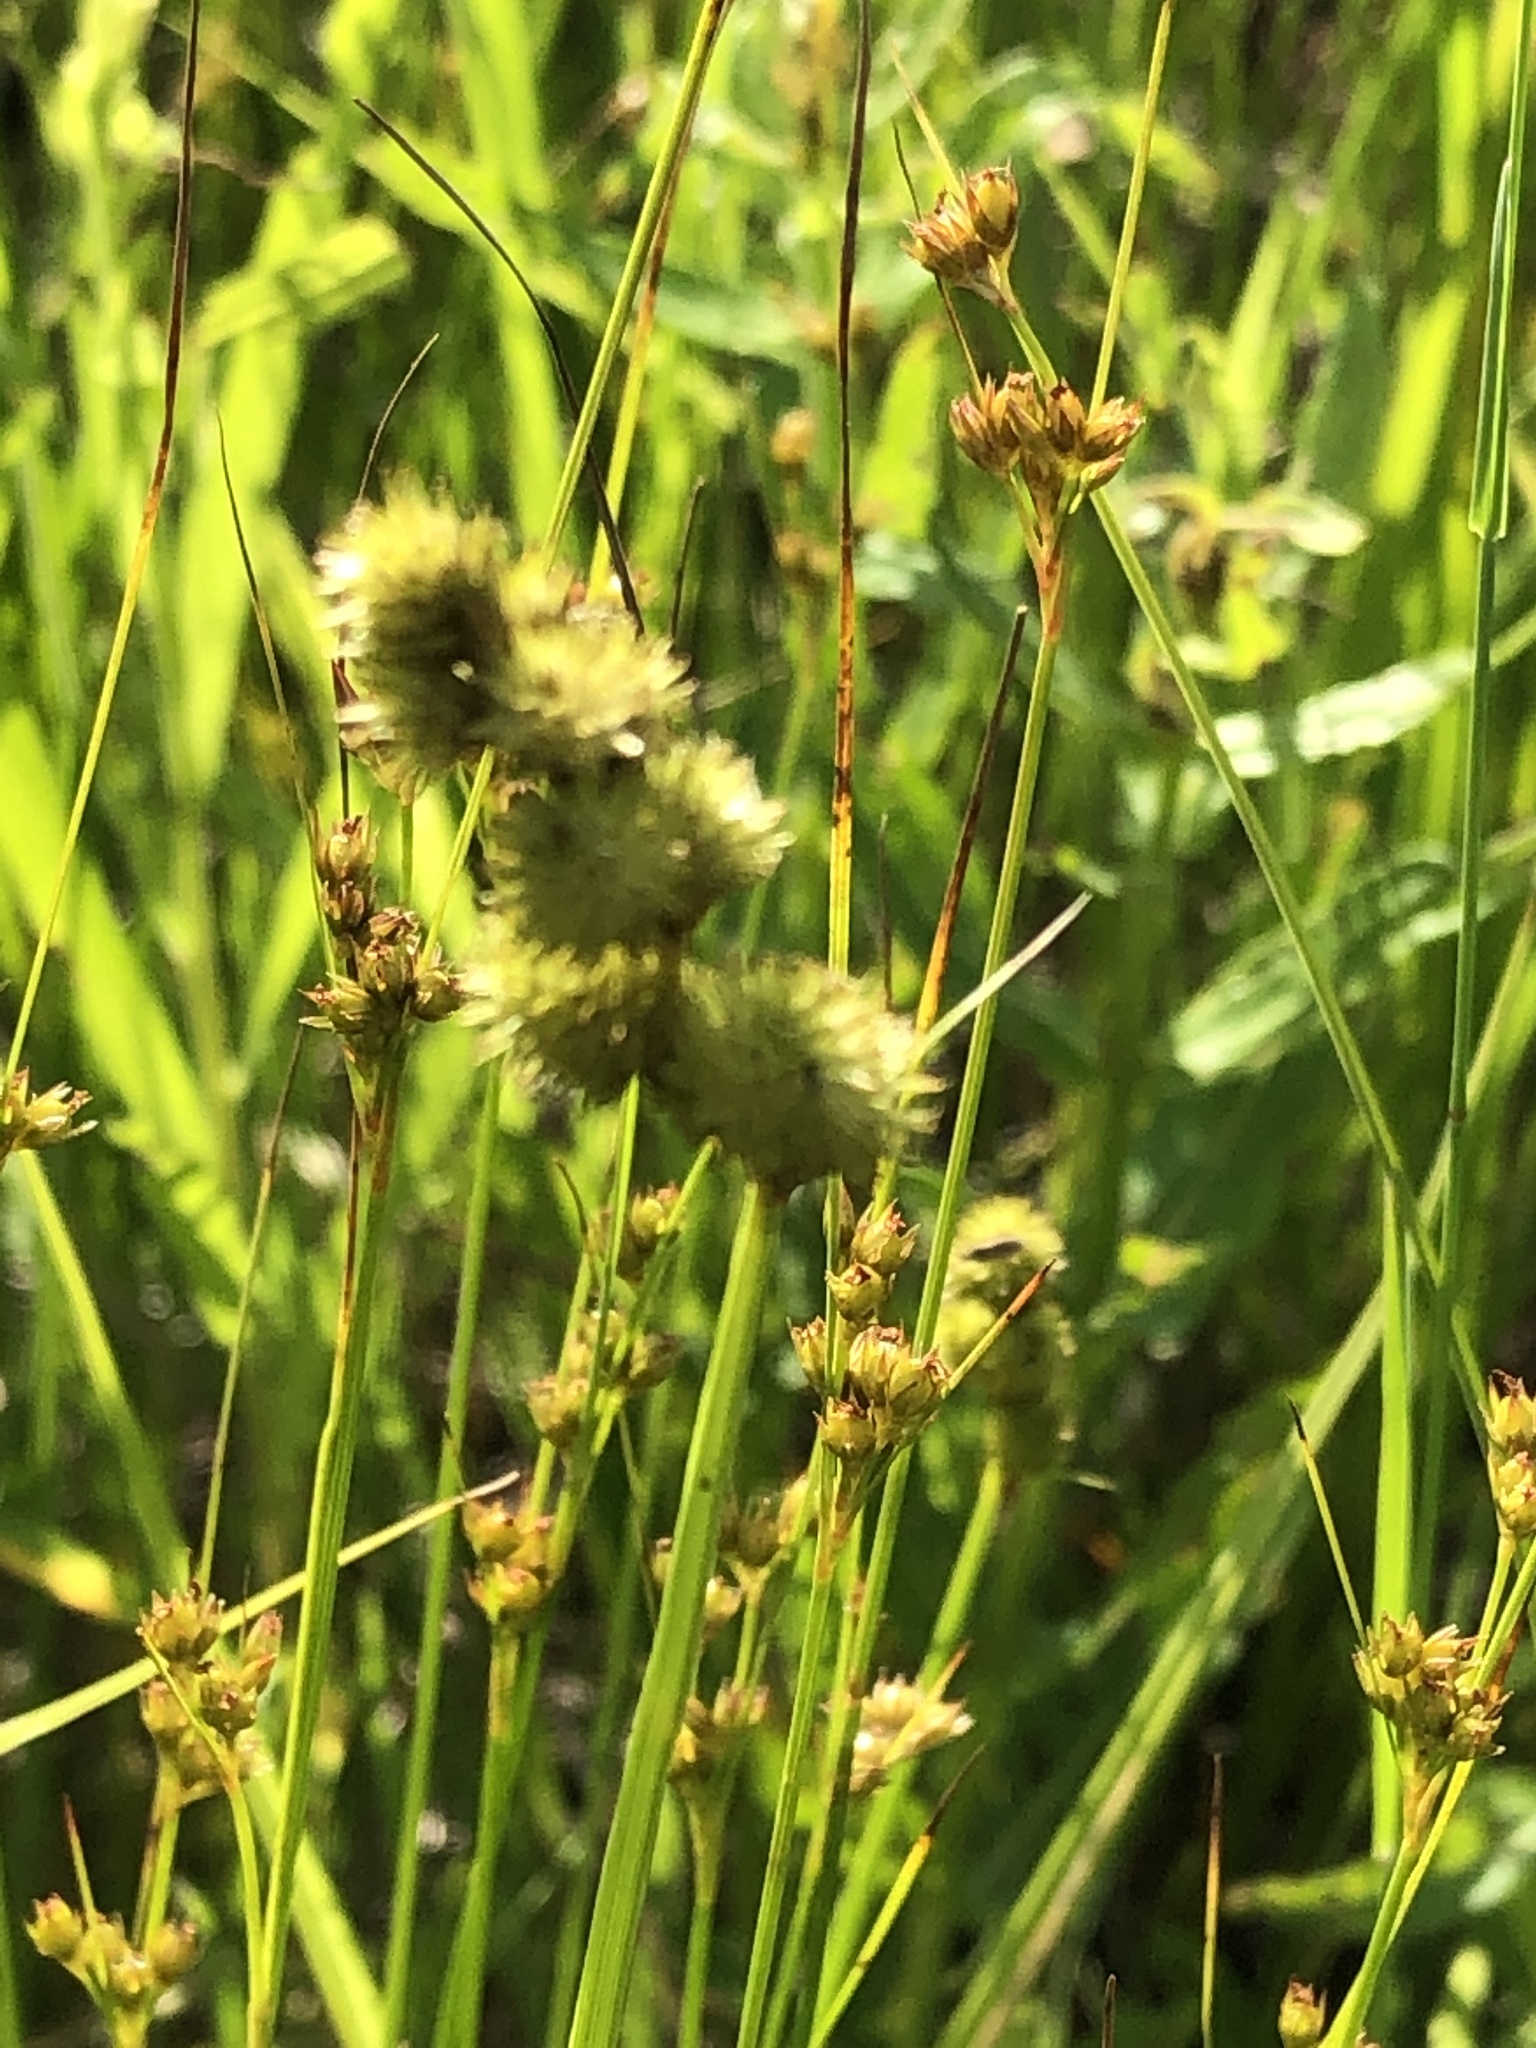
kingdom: Plantae
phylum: Tracheophyta
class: Liliopsida
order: Poales
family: Cyperaceae
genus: Carex
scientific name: Carex cristatella
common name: Crested oval sedge
